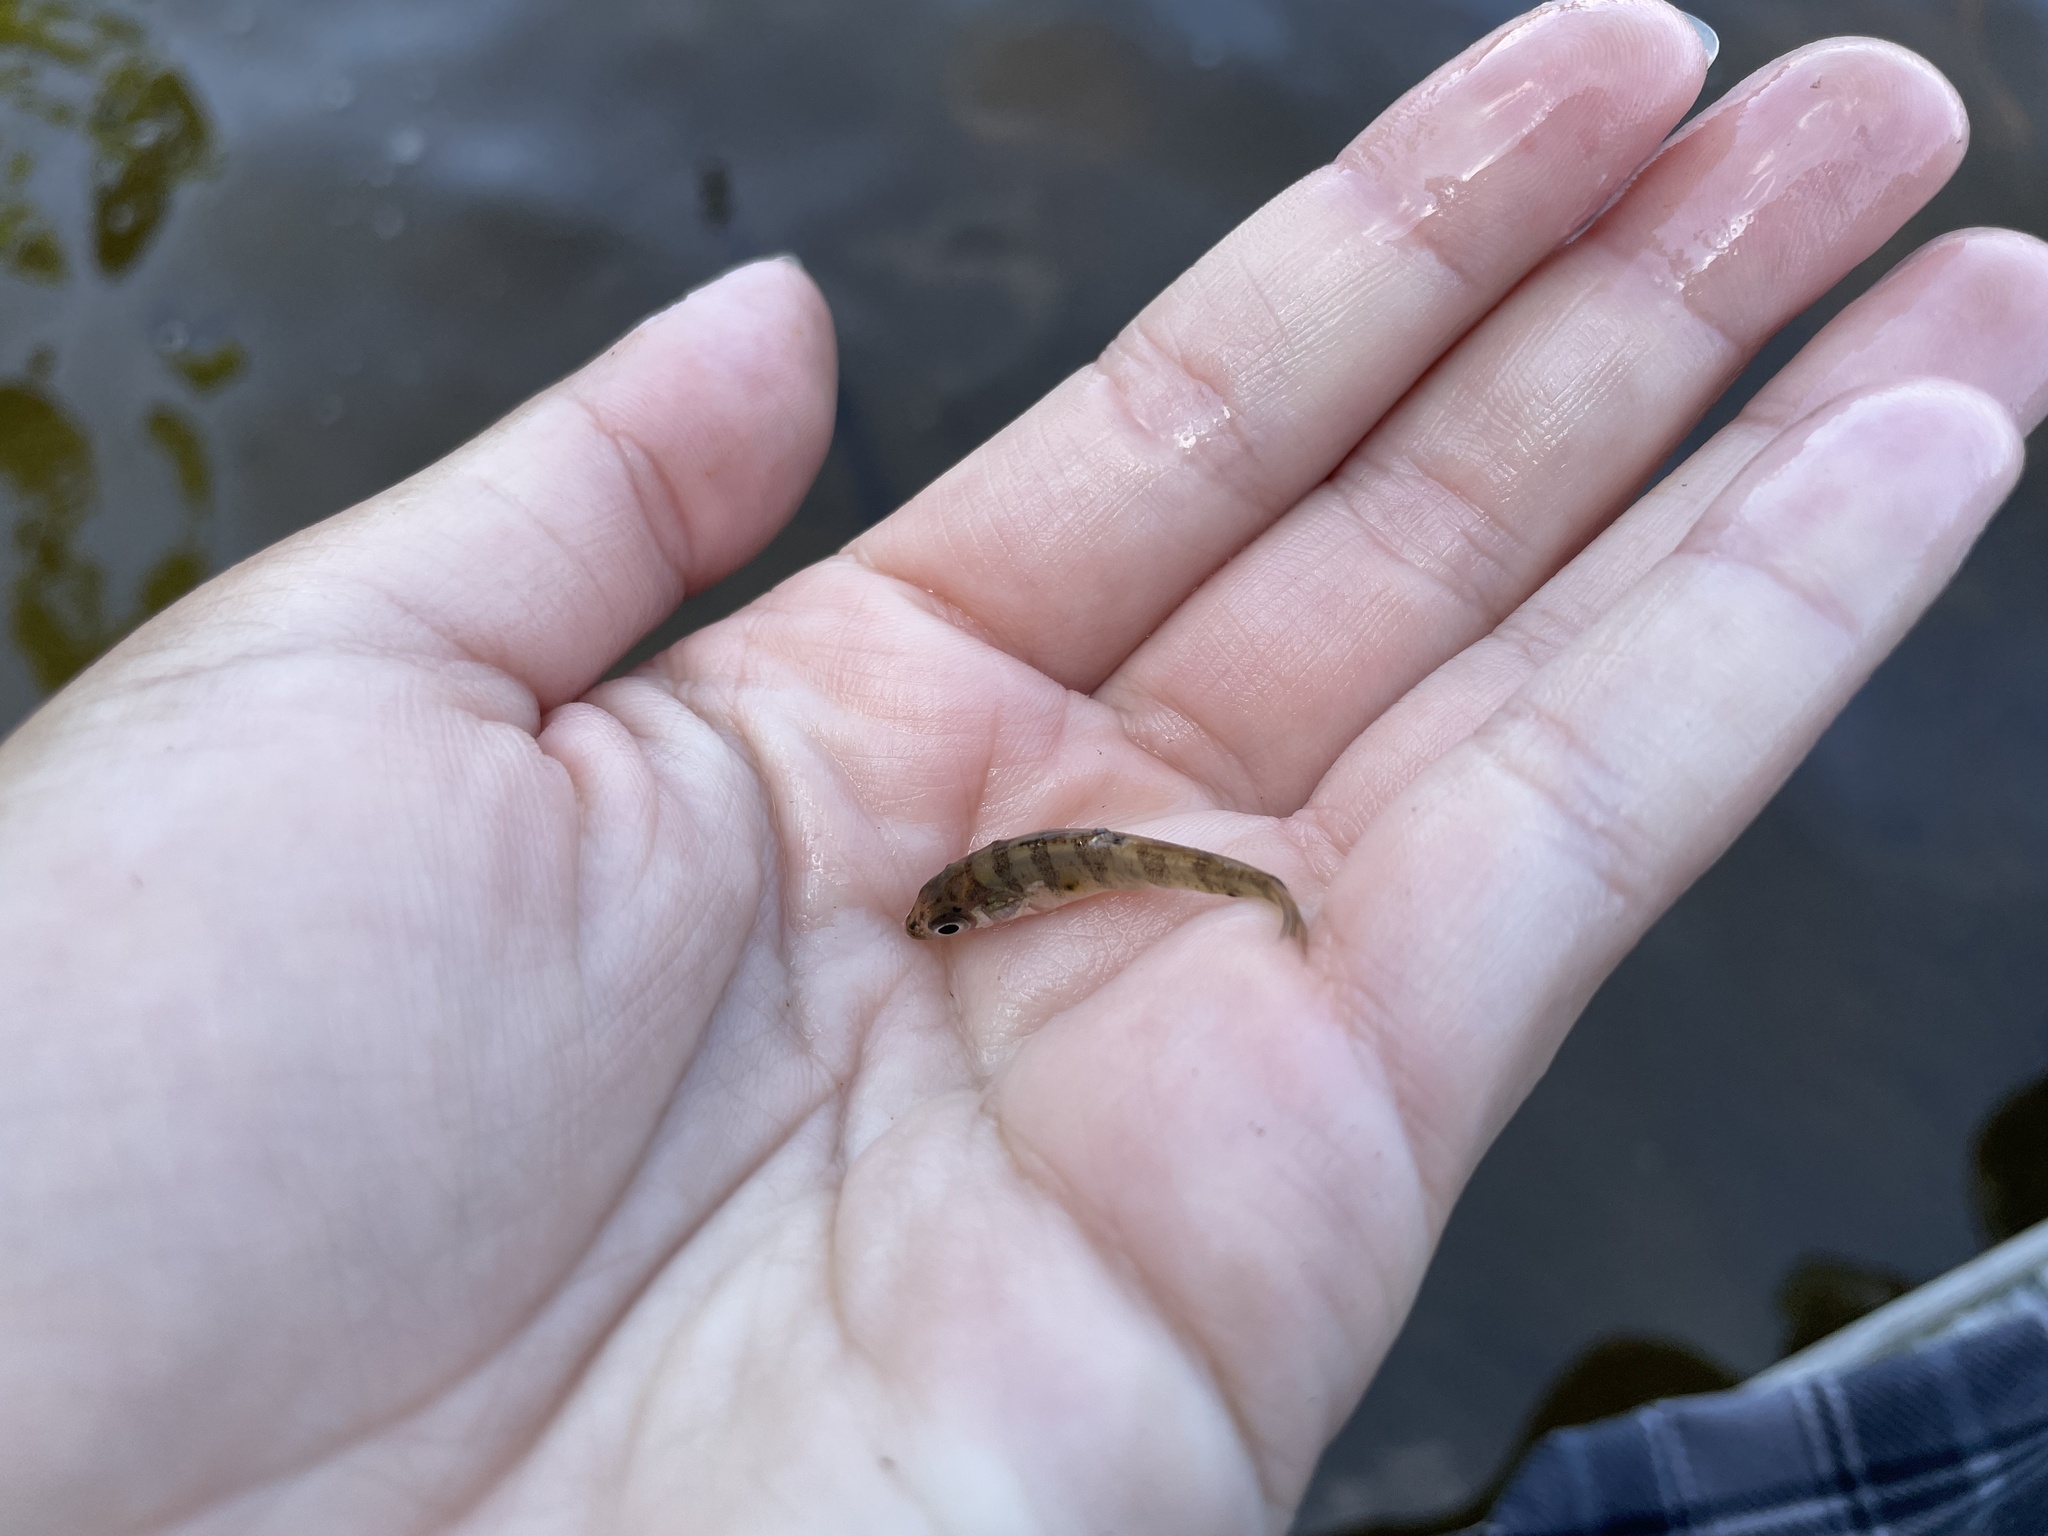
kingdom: Animalia
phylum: Chordata
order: Perciformes
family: Percidae
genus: Perca
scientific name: Perca flavescens
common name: Yellow perch
